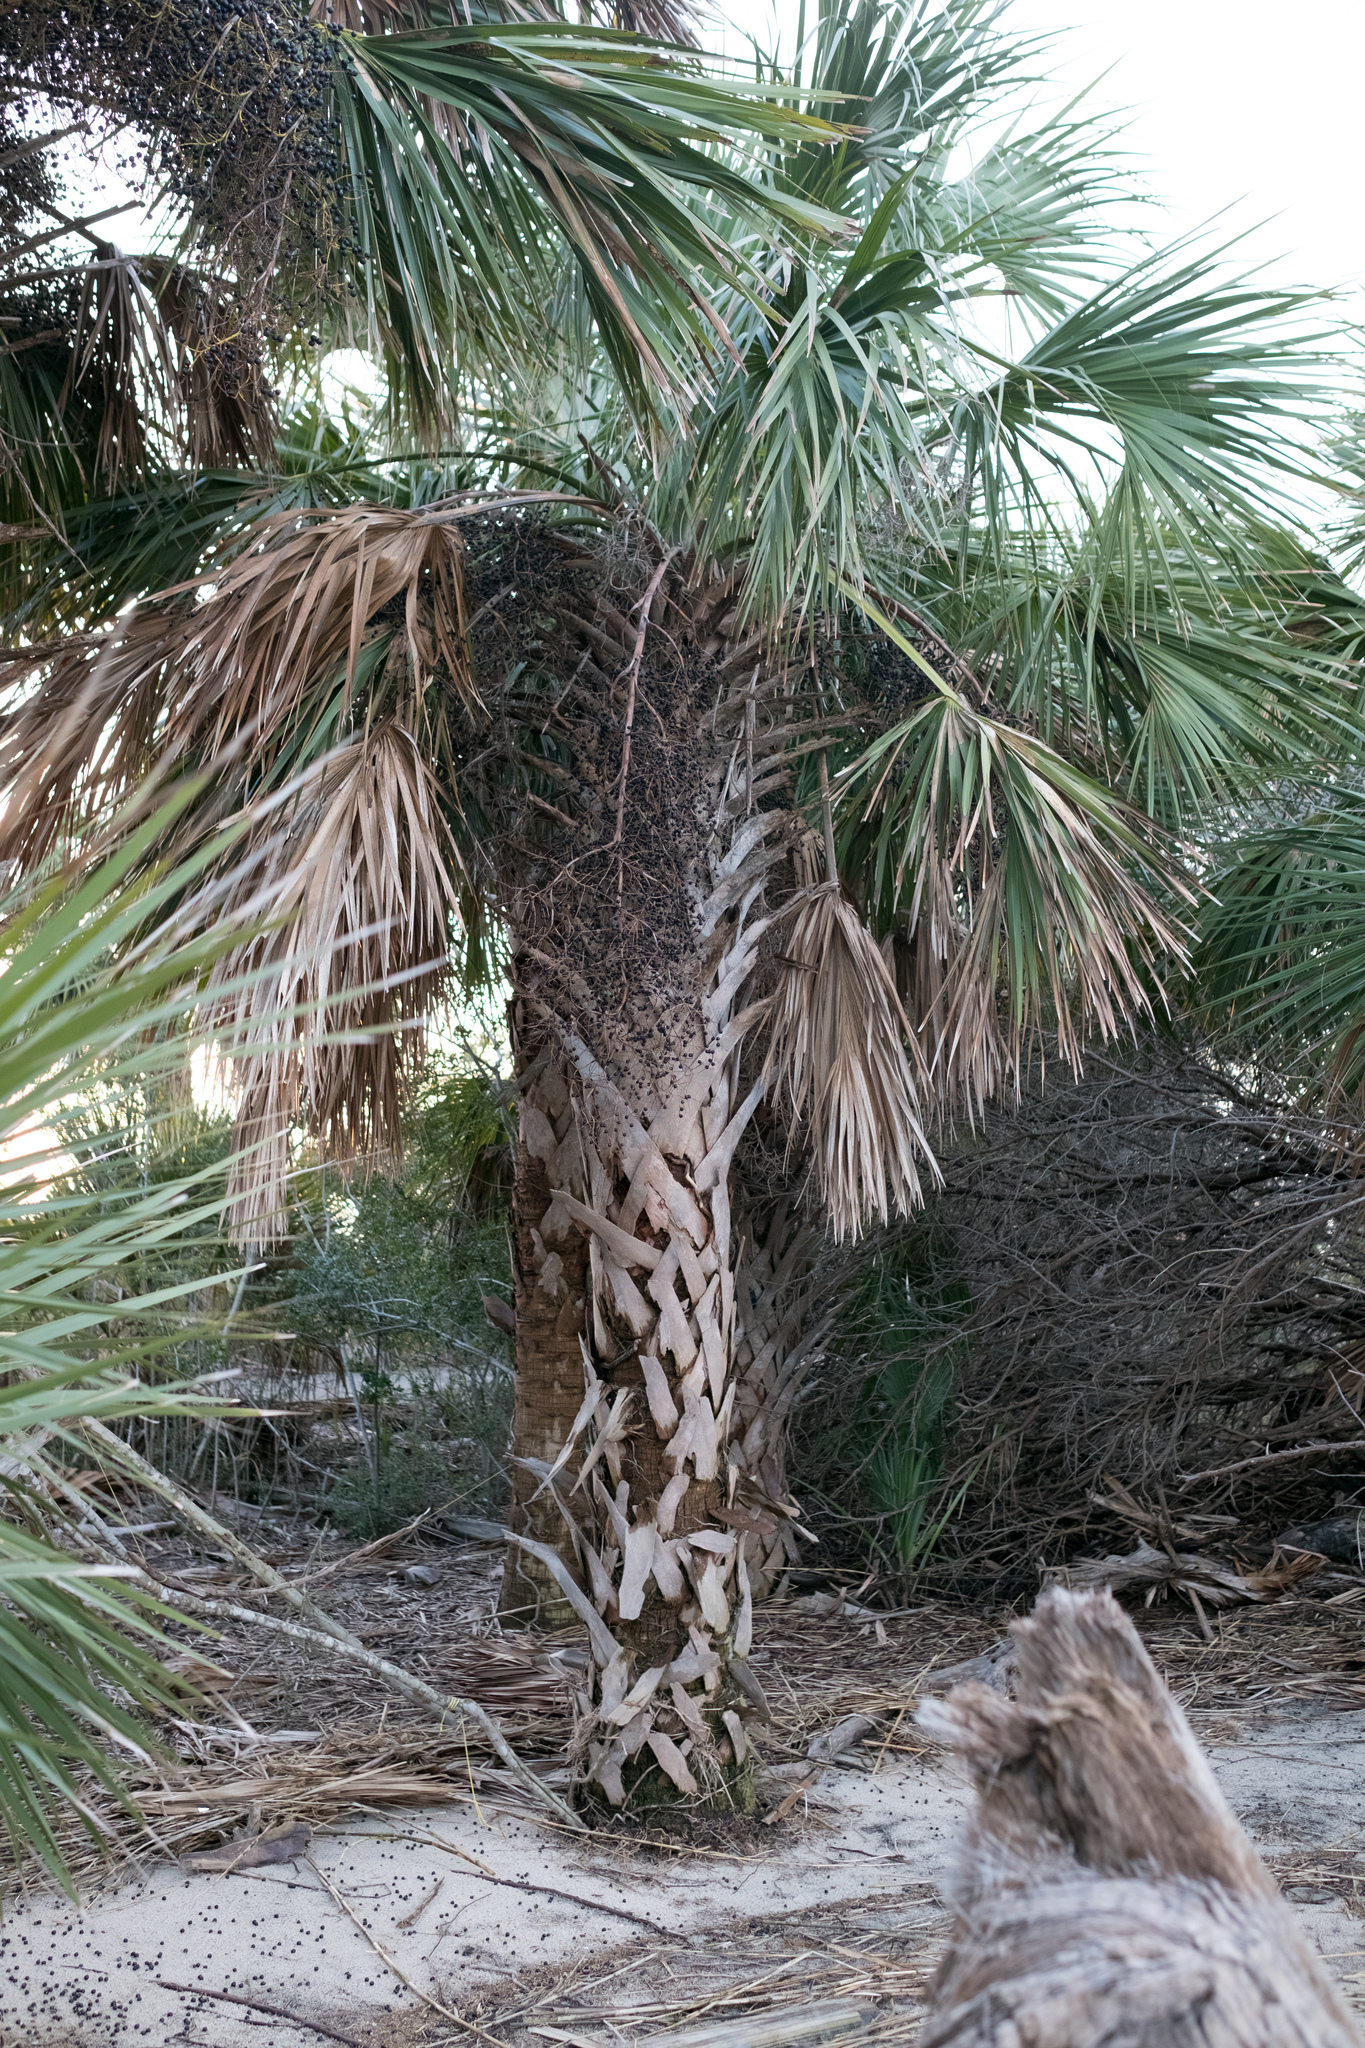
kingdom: Plantae
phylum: Tracheophyta
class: Liliopsida
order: Arecales
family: Arecaceae
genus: Sabal
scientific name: Sabal palmetto
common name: Blue palmetto
